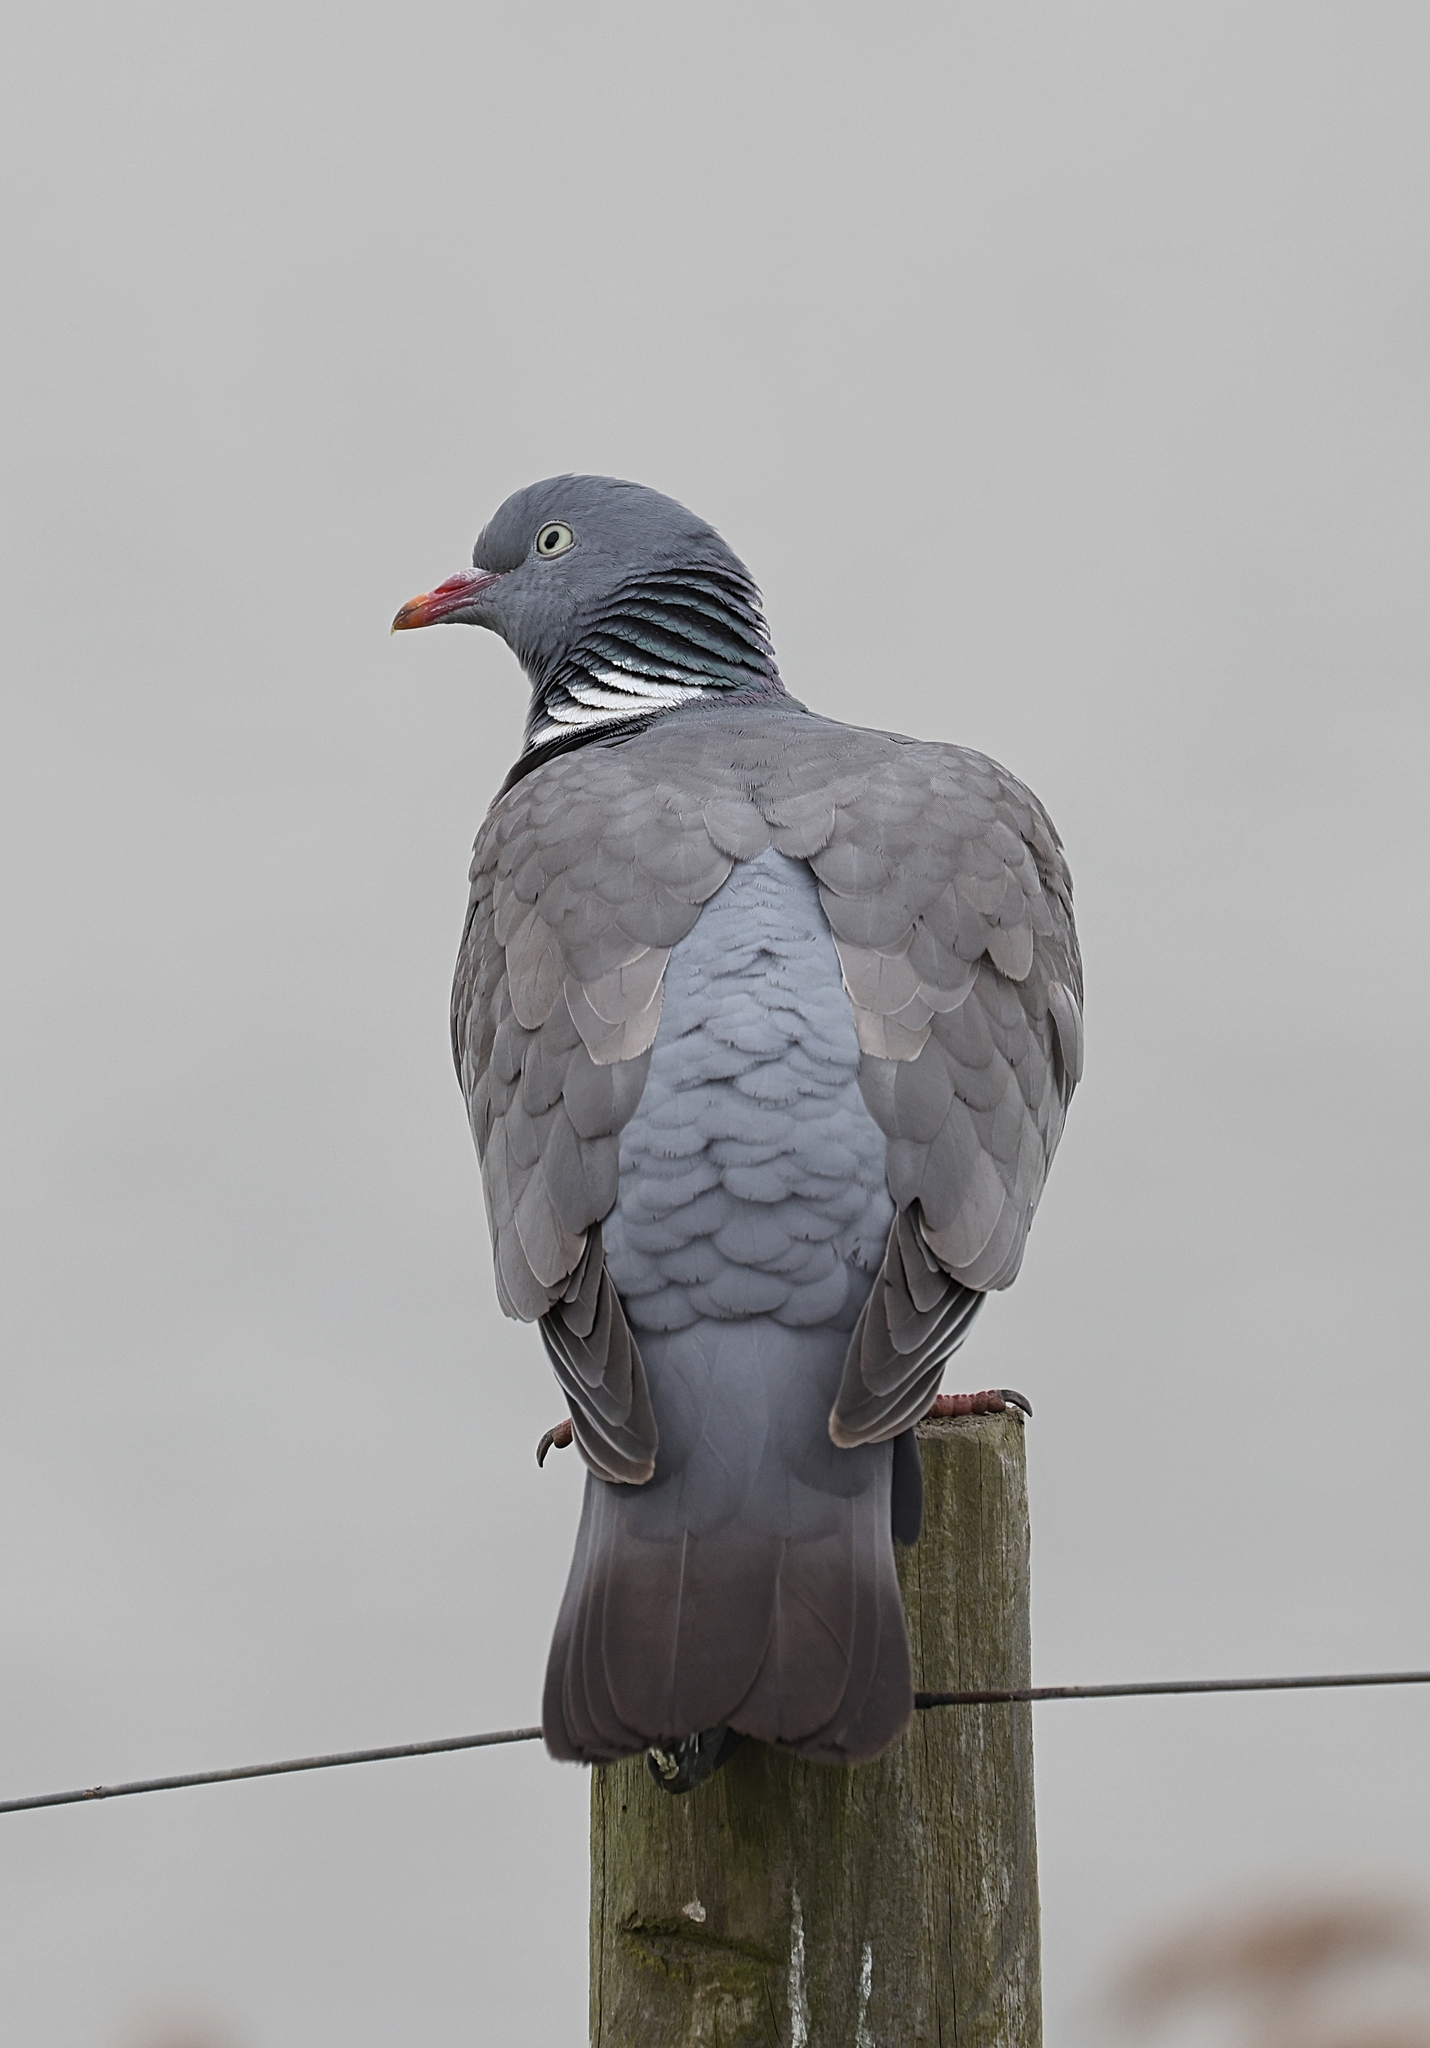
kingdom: Animalia
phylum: Chordata
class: Aves
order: Columbiformes
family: Columbidae
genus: Columba
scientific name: Columba palumbus
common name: Common wood pigeon
